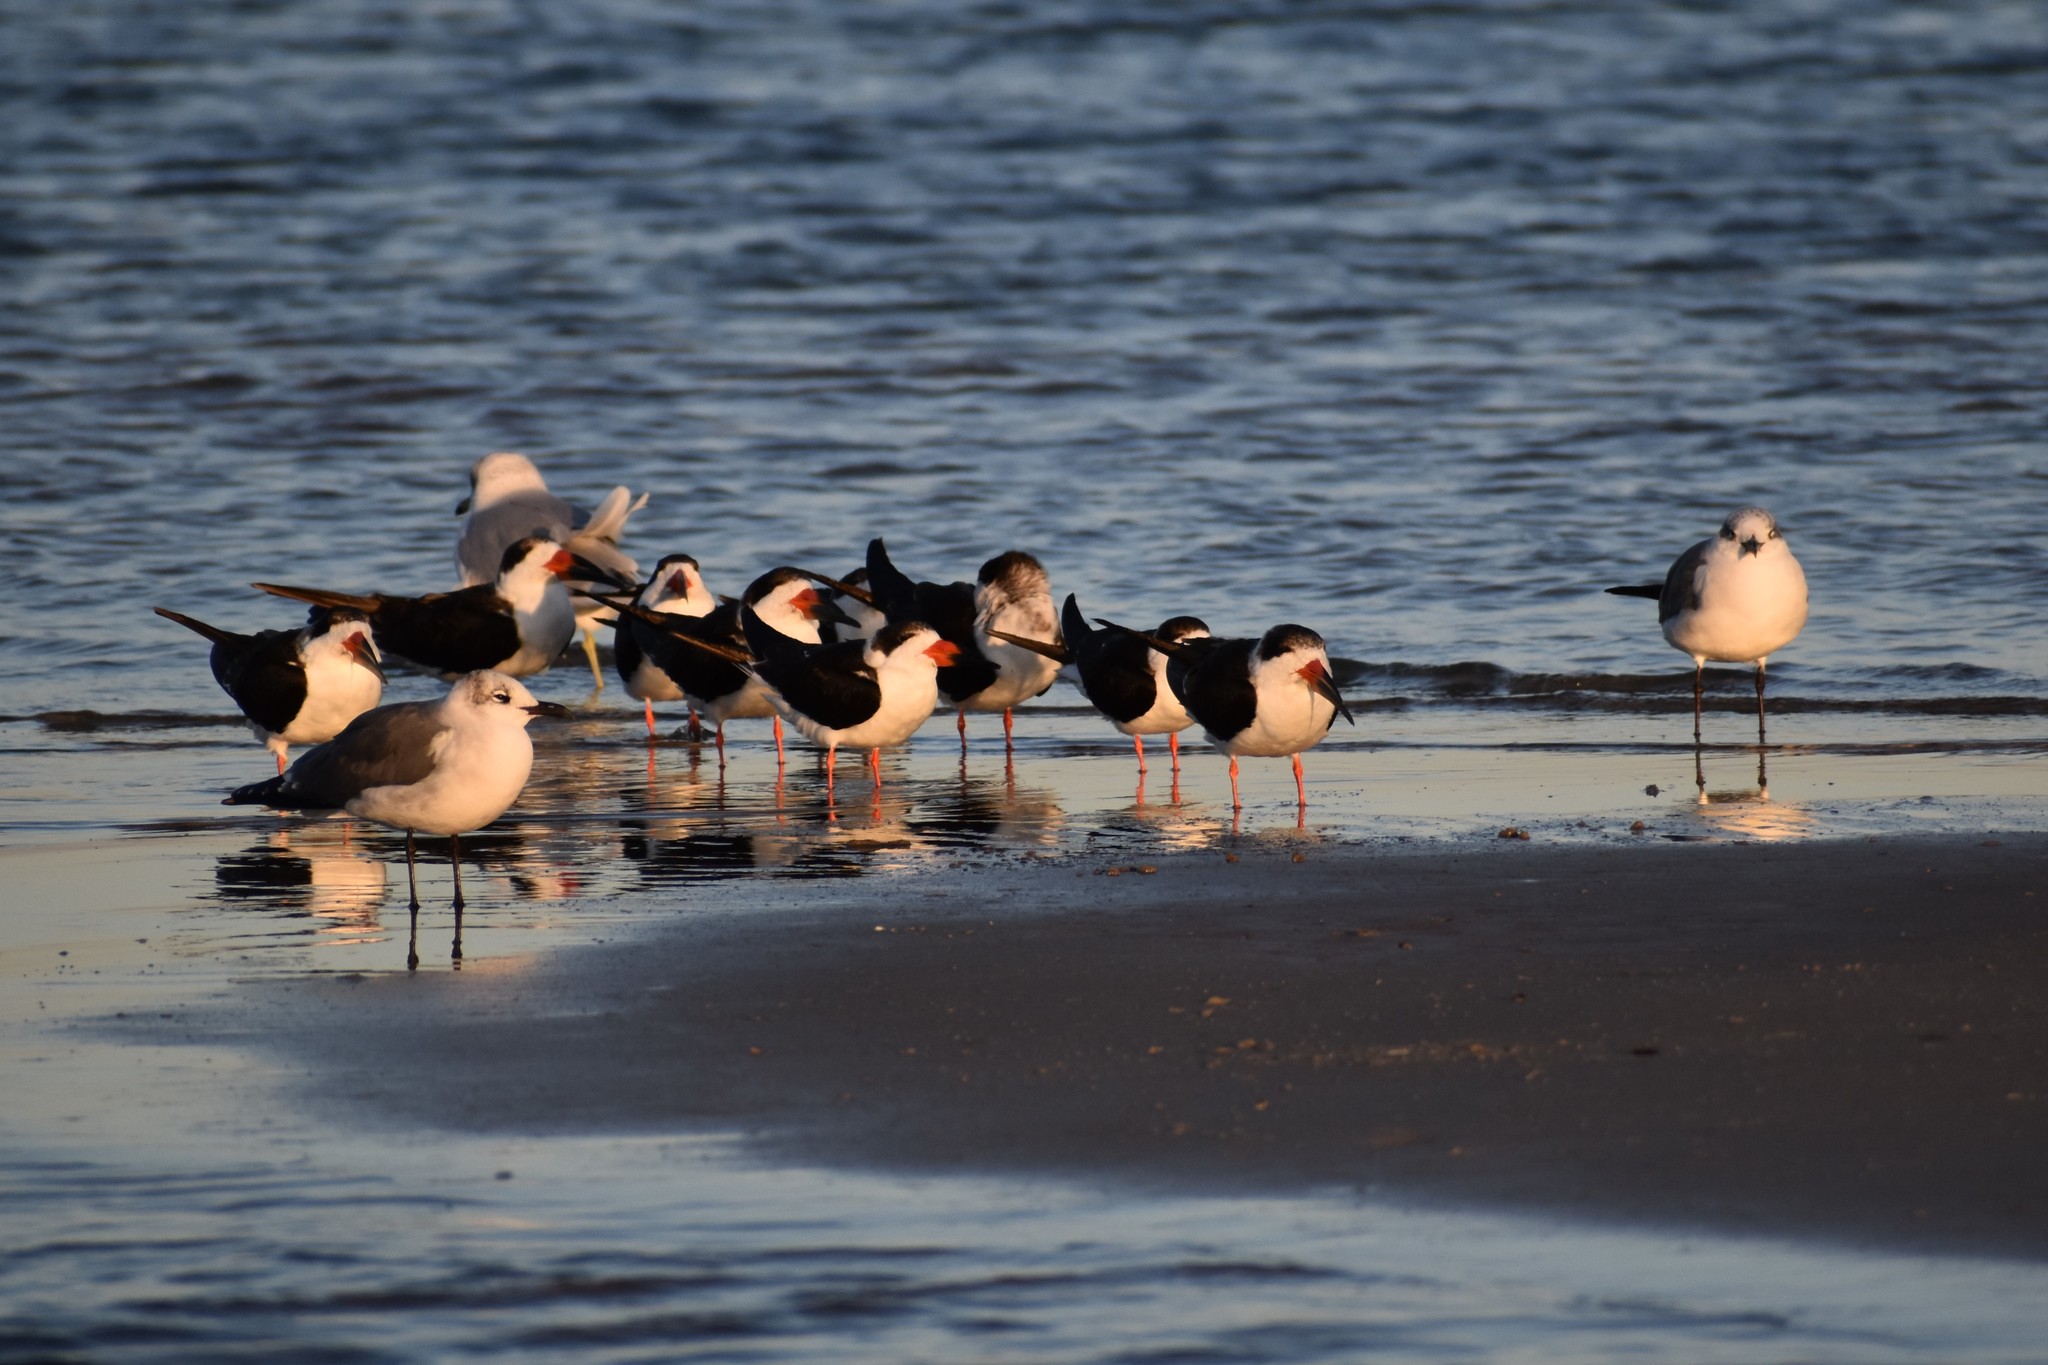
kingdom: Animalia
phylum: Chordata
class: Aves
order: Charadriiformes
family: Laridae
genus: Rynchops
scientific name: Rynchops niger
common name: Black skimmer
